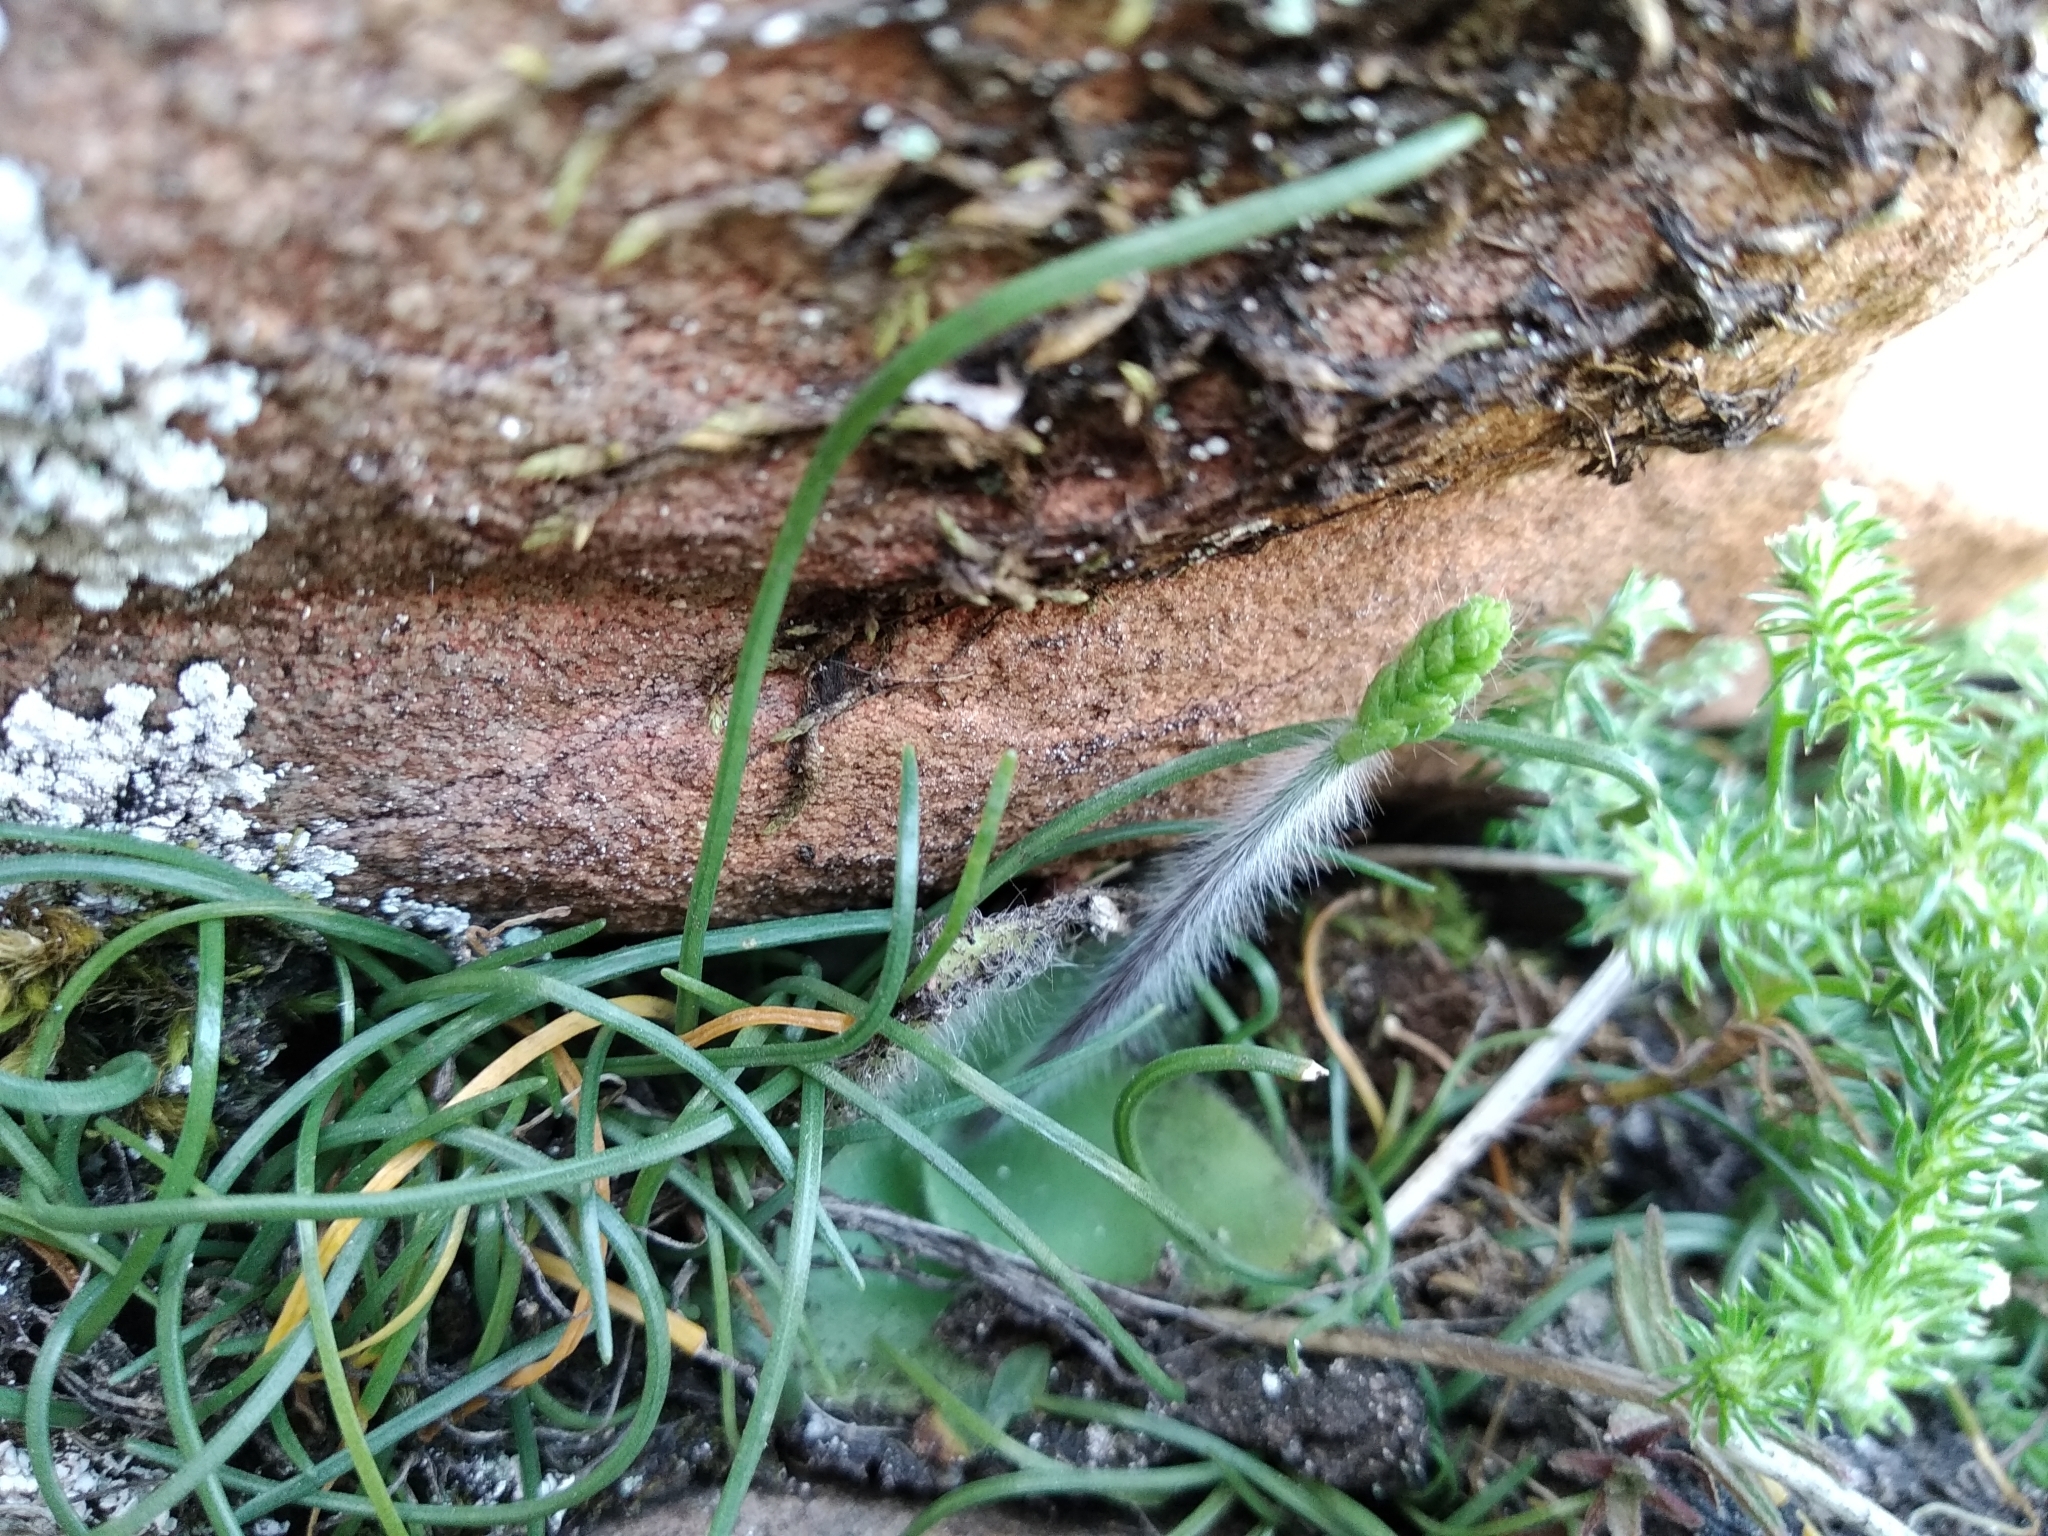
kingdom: Plantae
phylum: Tracheophyta
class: Liliopsida
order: Asparagales
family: Orchidaceae
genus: Holothrix
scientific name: Holothrix villosa
